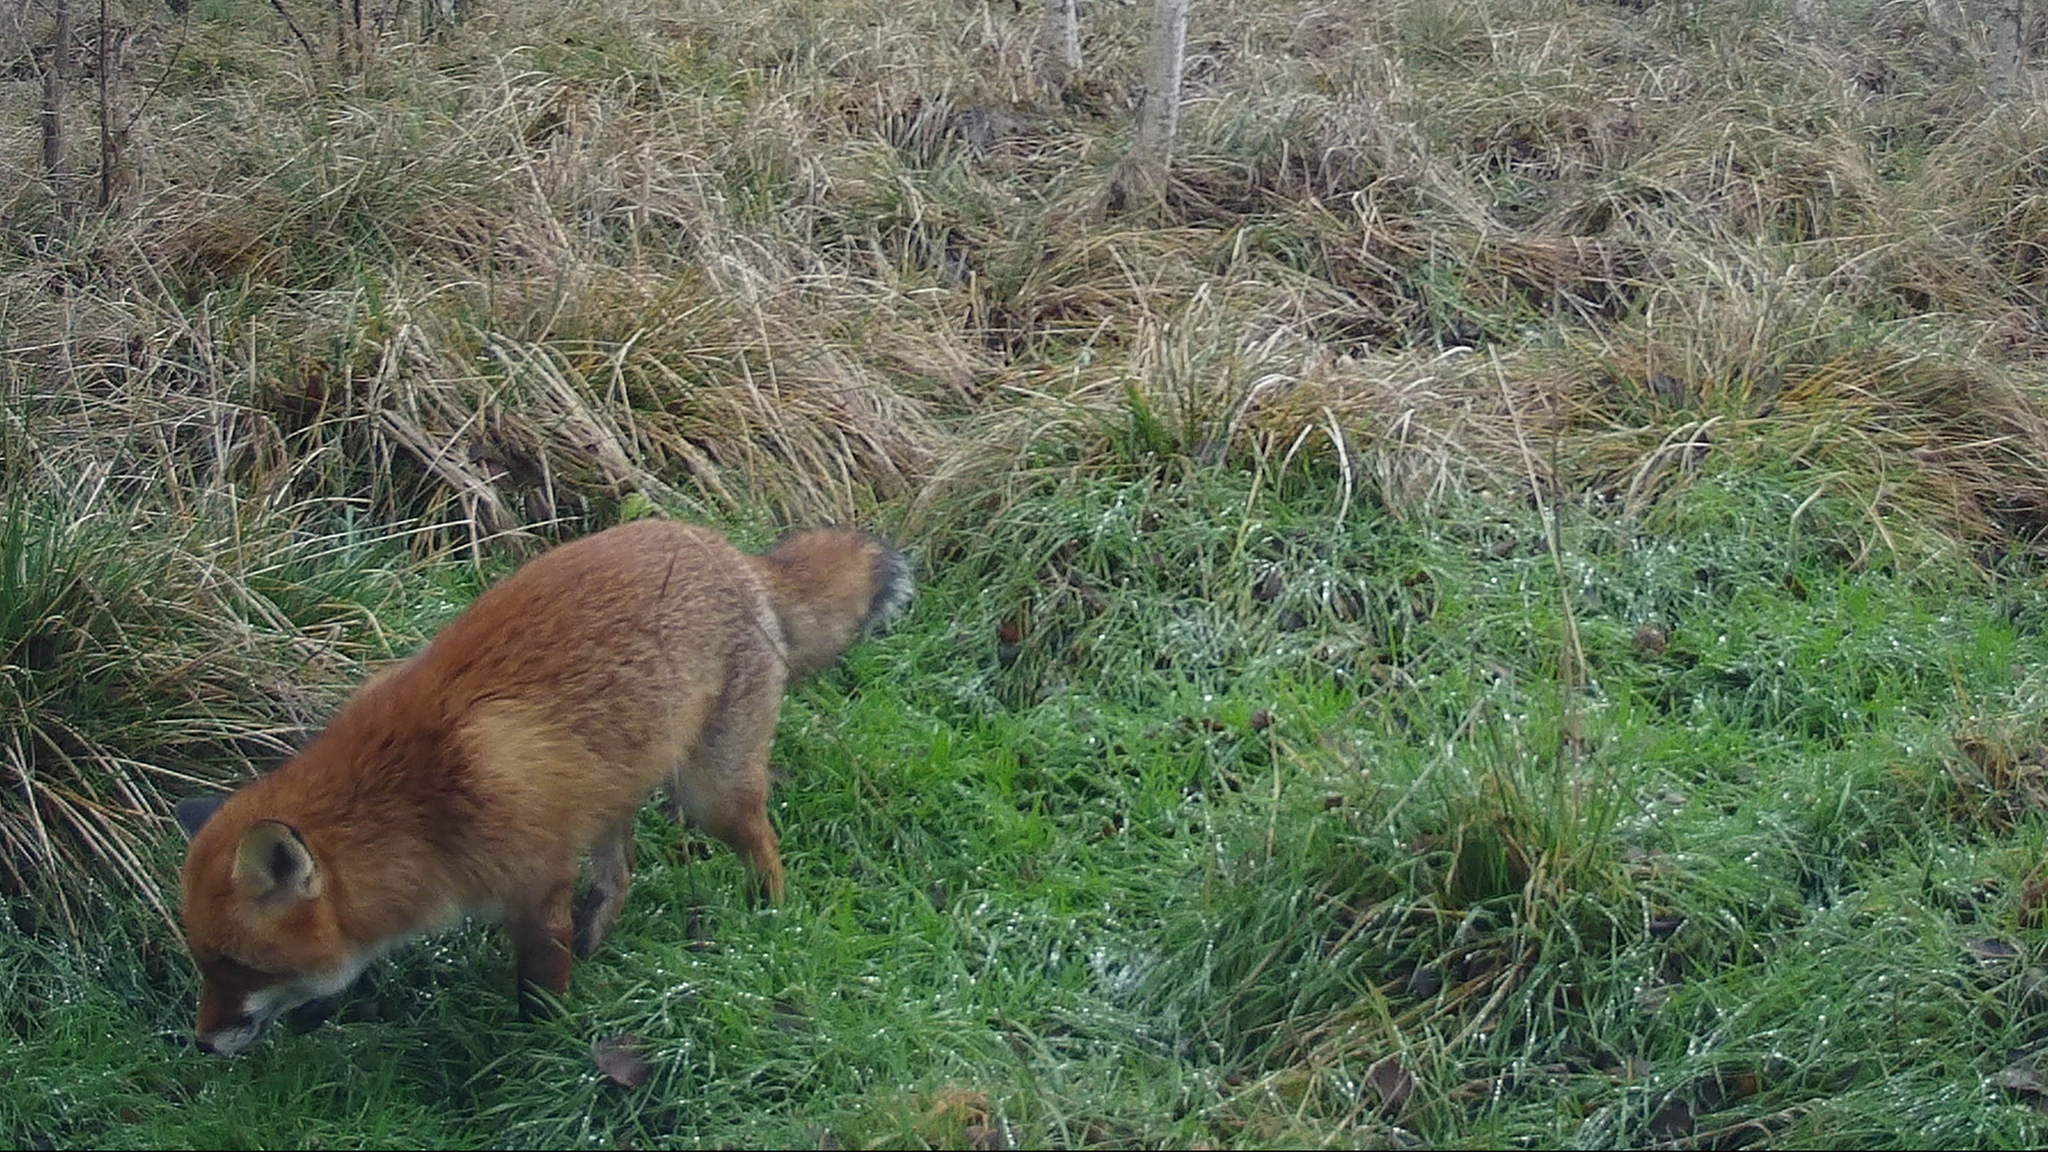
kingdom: Animalia
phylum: Chordata
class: Mammalia
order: Carnivora
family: Canidae
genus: Vulpes
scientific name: Vulpes vulpes
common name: Red fox
